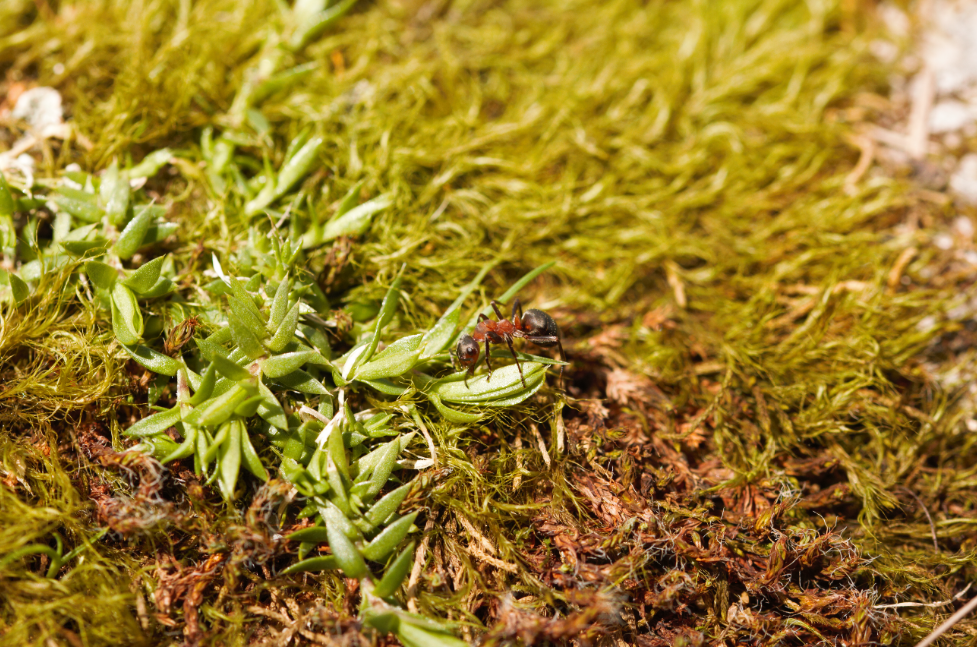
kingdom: Animalia
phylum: Arthropoda
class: Insecta
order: Hymenoptera
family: Formicidae
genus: Formica
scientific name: Formica
